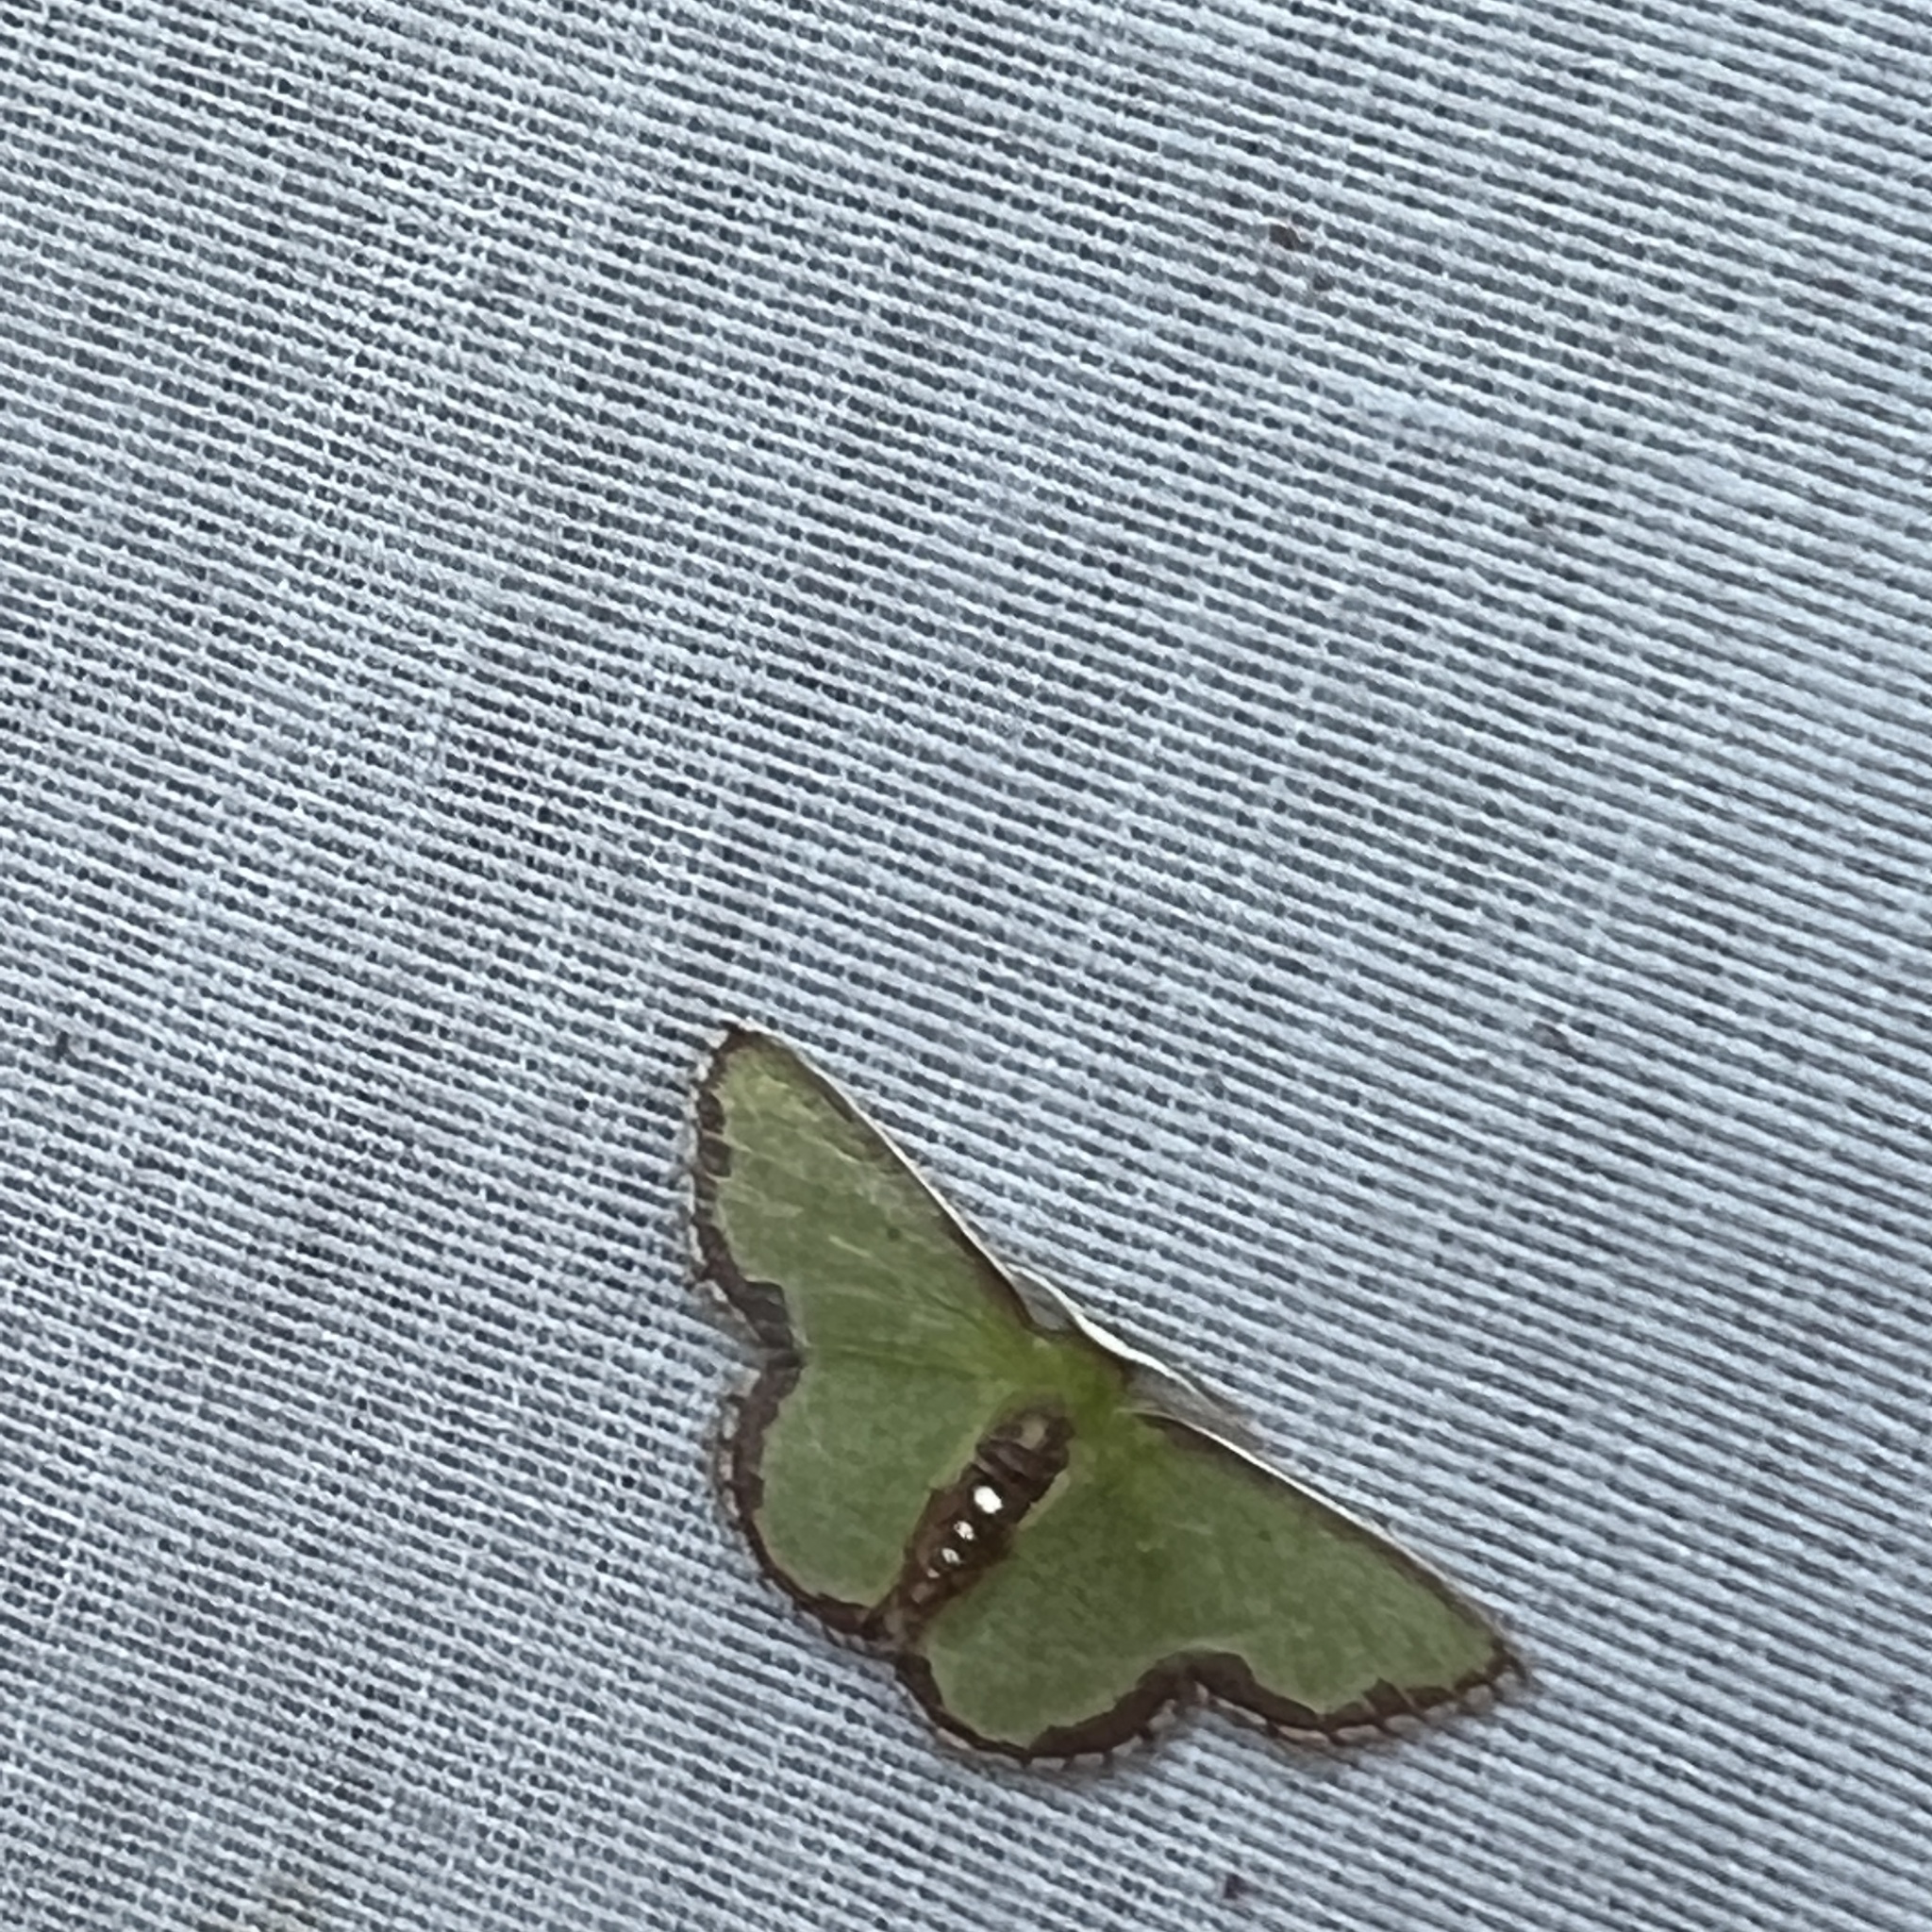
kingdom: Animalia
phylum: Arthropoda
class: Insecta
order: Lepidoptera
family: Geometridae
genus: Synchlora
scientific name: Synchlora expulsata
